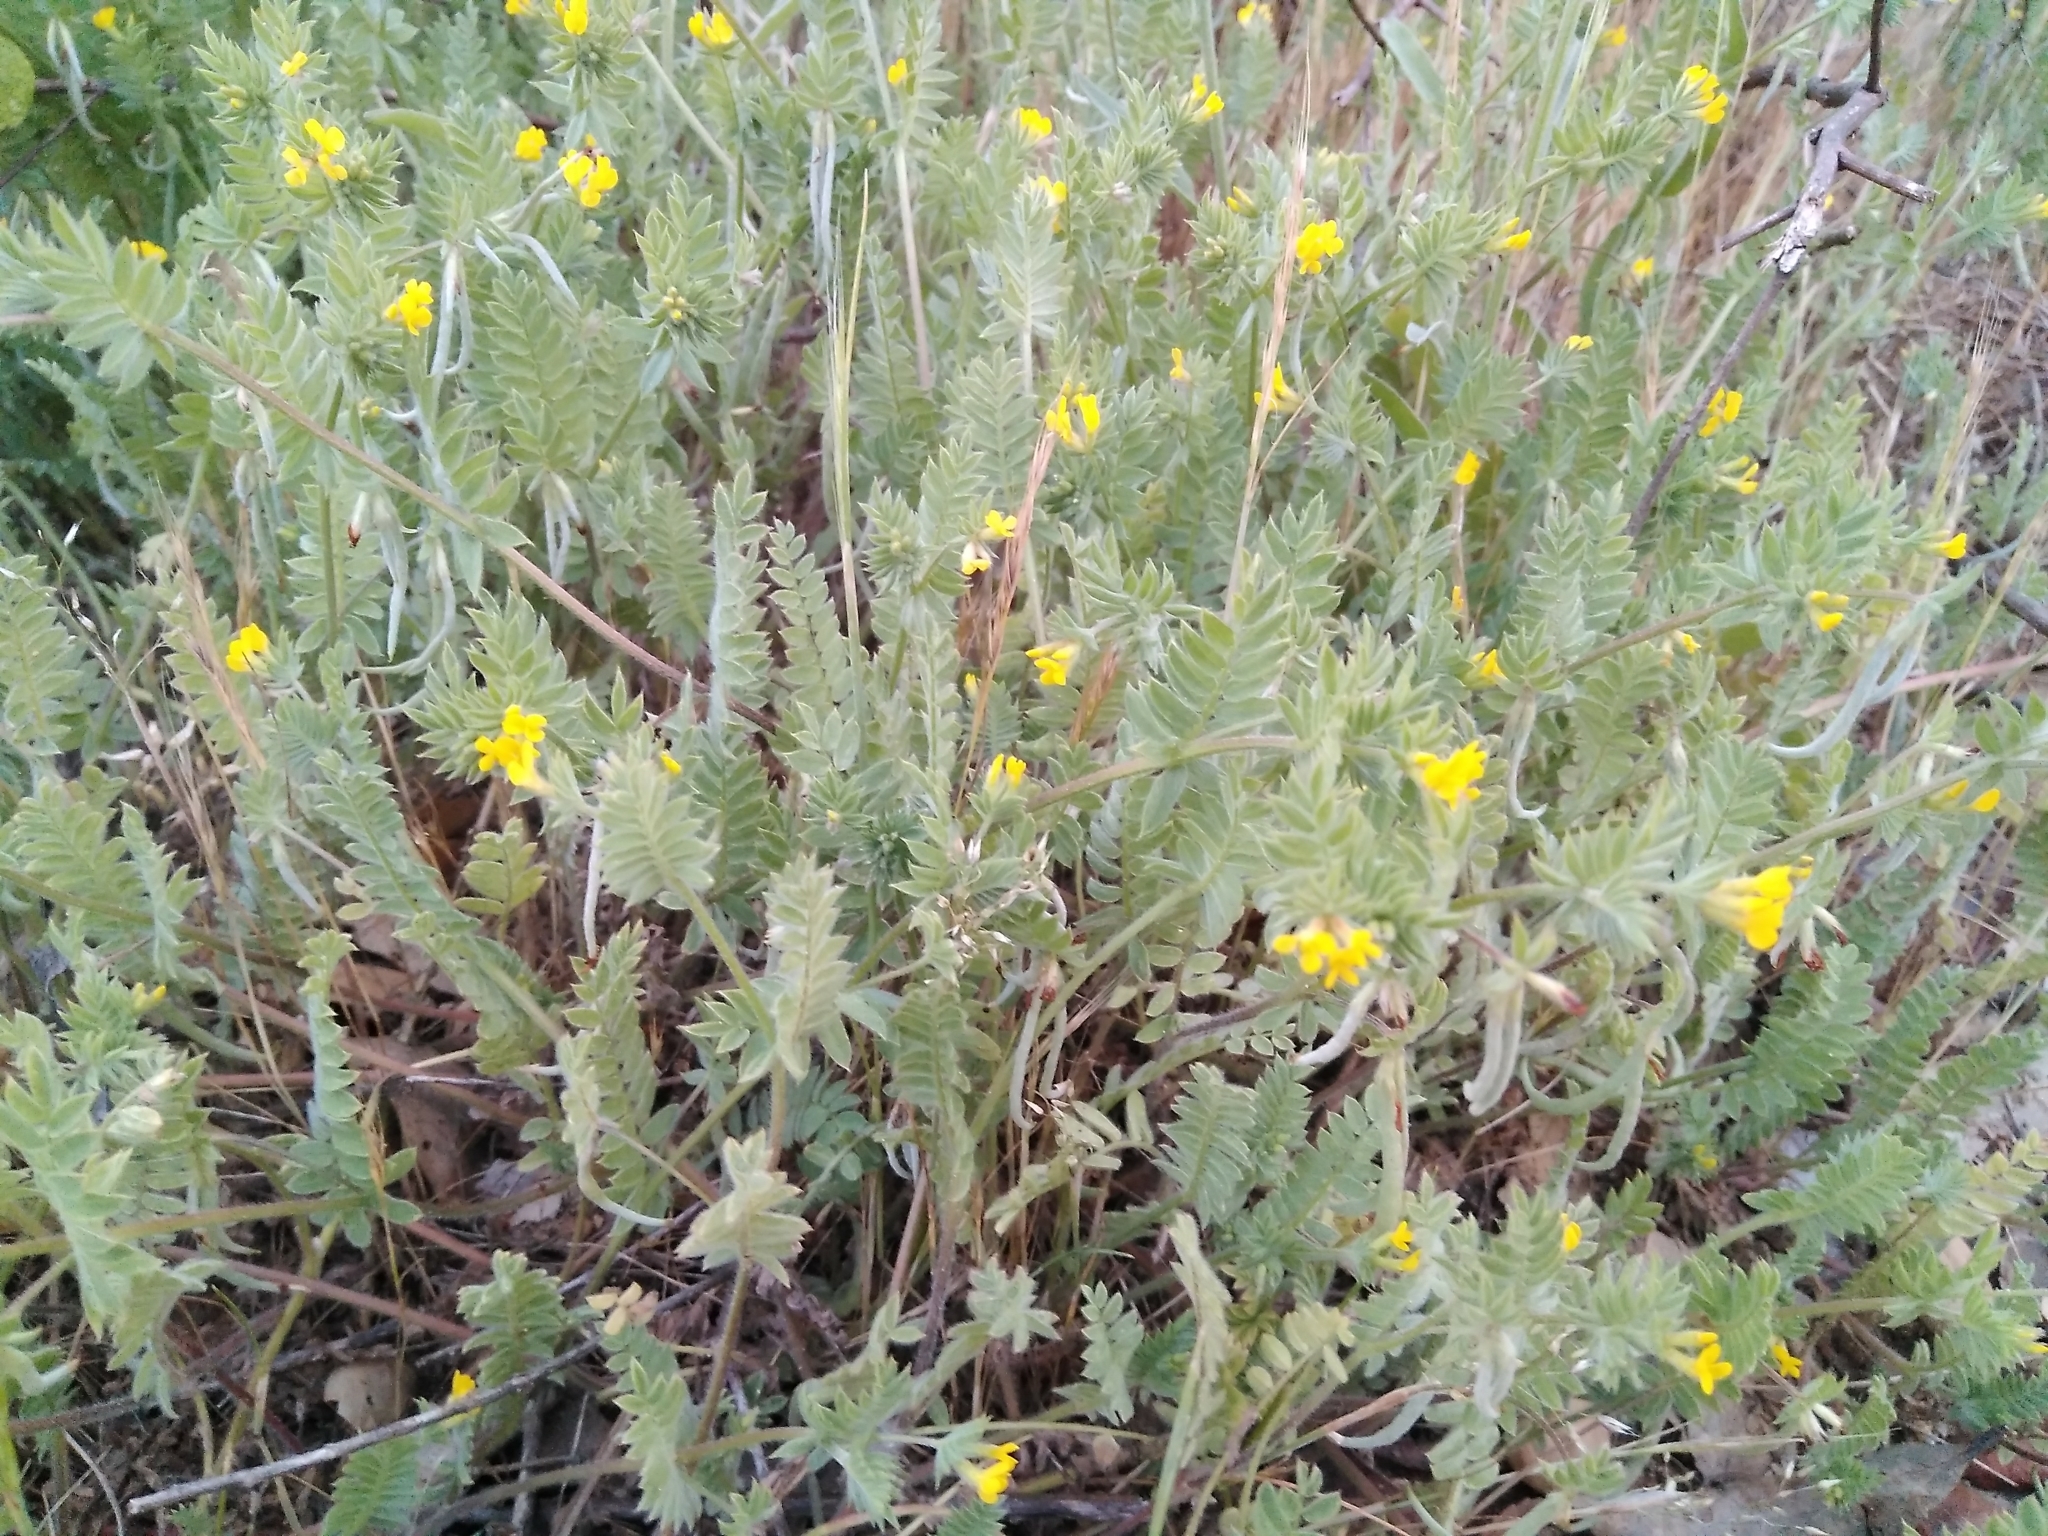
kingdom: Plantae
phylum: Tracheophyta
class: Magnoliopsida
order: Fabales
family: Fabaceae
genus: Ornithopus
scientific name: Ornithopus compressus
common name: Yellow serradella
